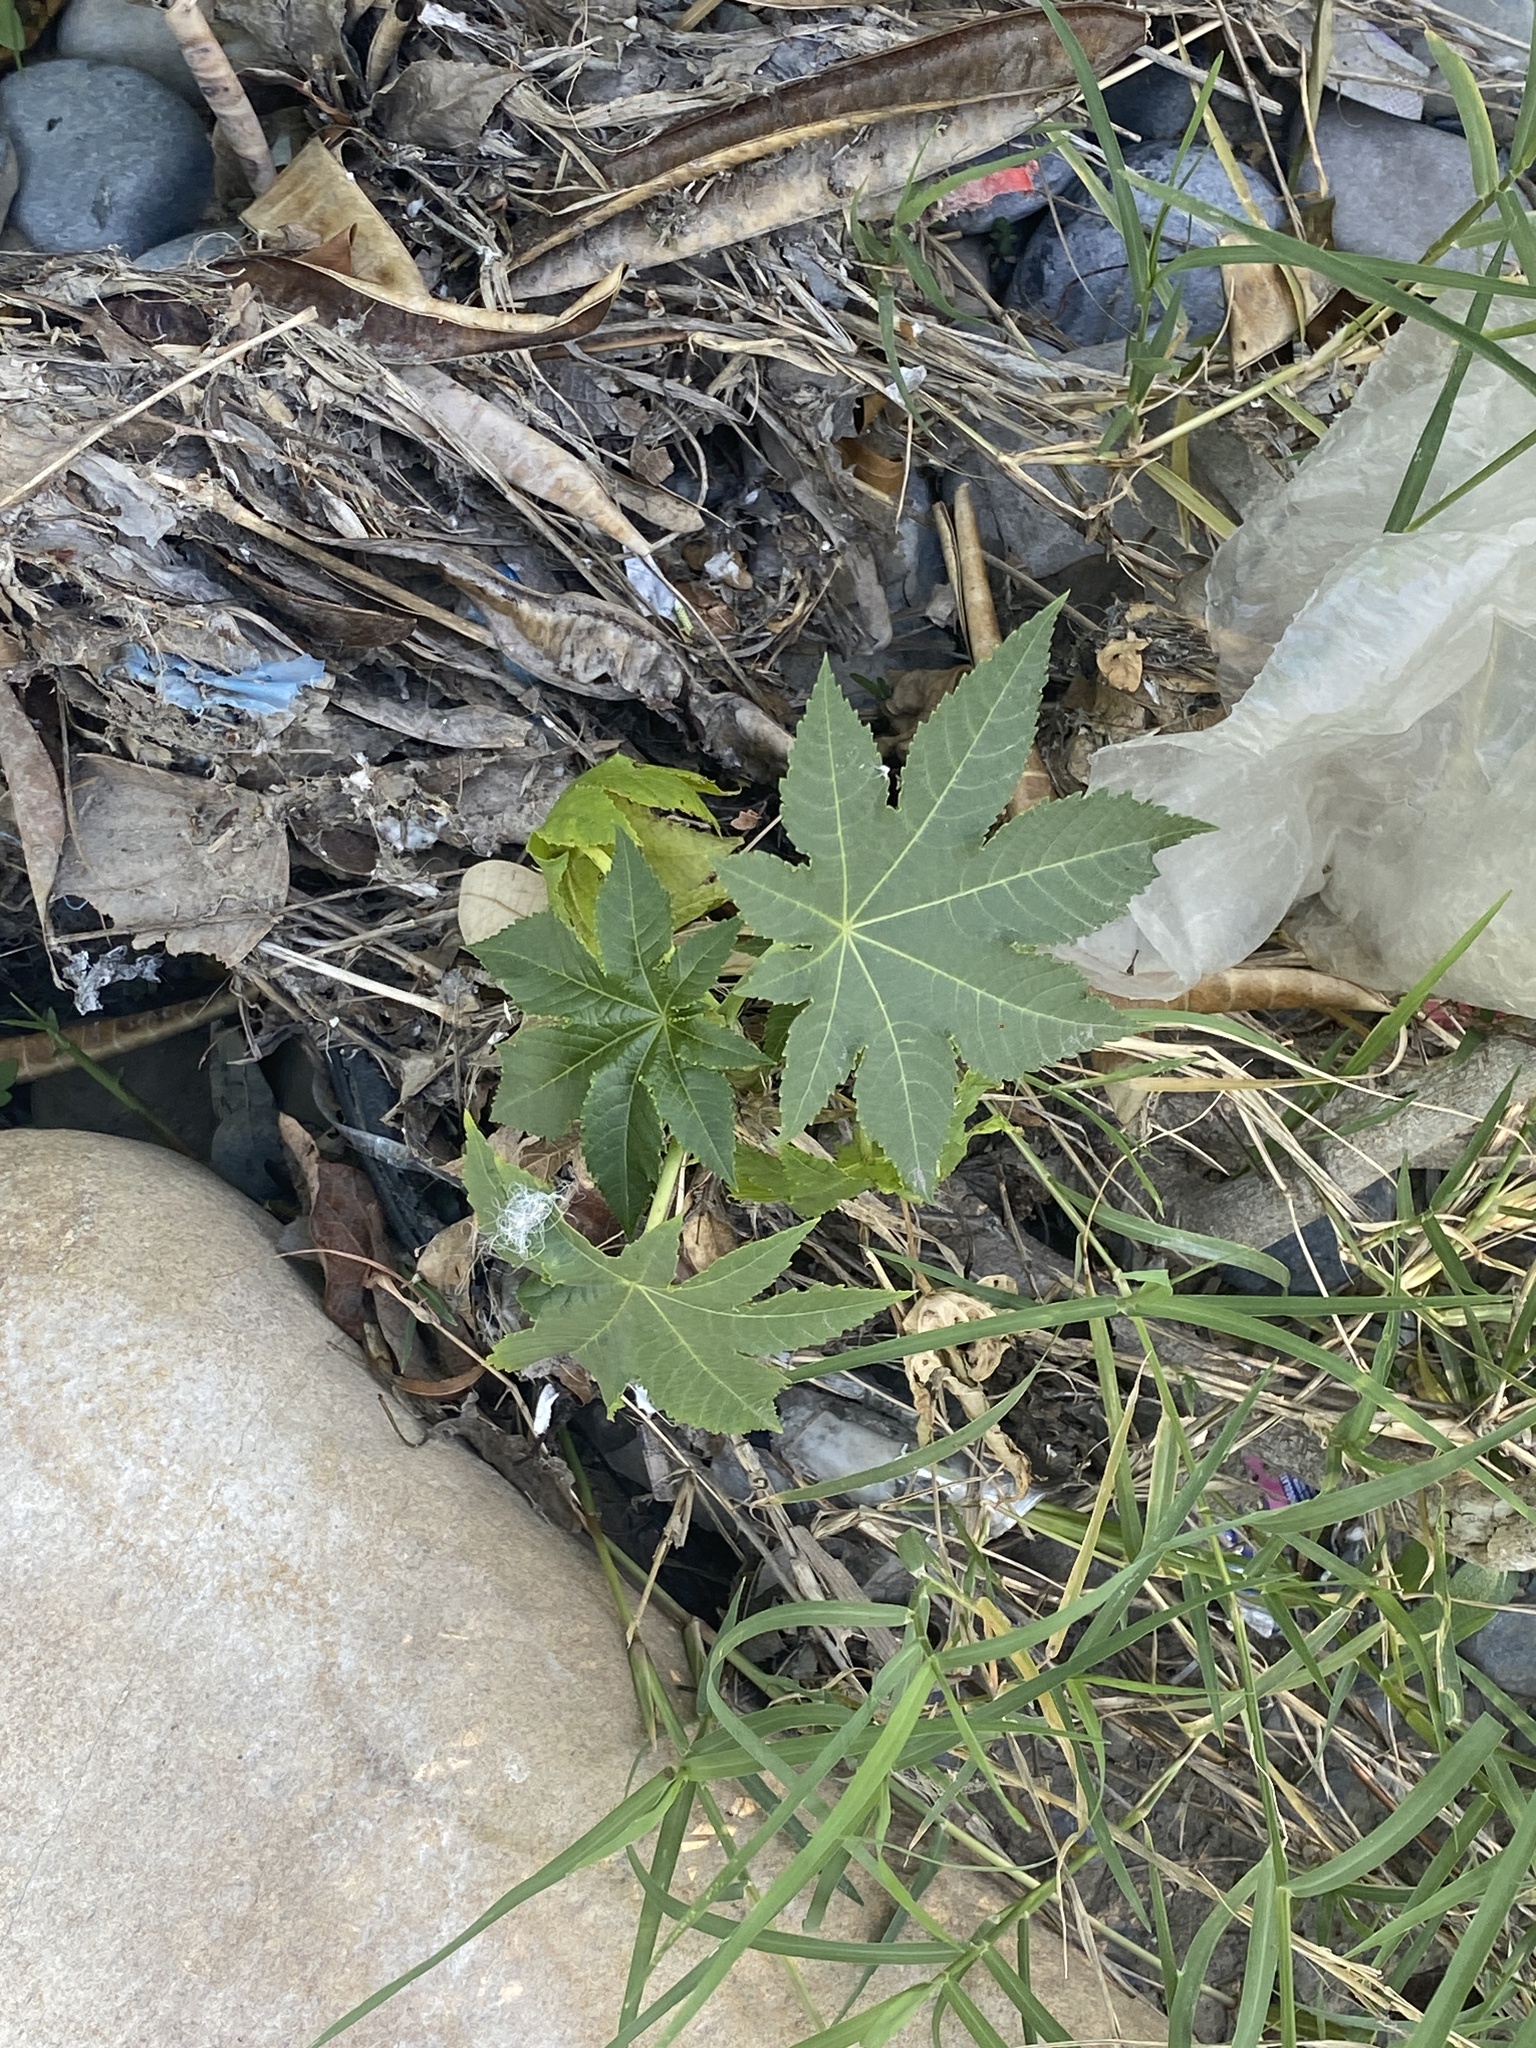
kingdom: Plantae
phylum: Tracheophyta
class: Magnoliopsida
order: Malpighiales
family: Euphorbiaceae
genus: Ricinus
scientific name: Ricinus communis
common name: Castor-oil-plant
